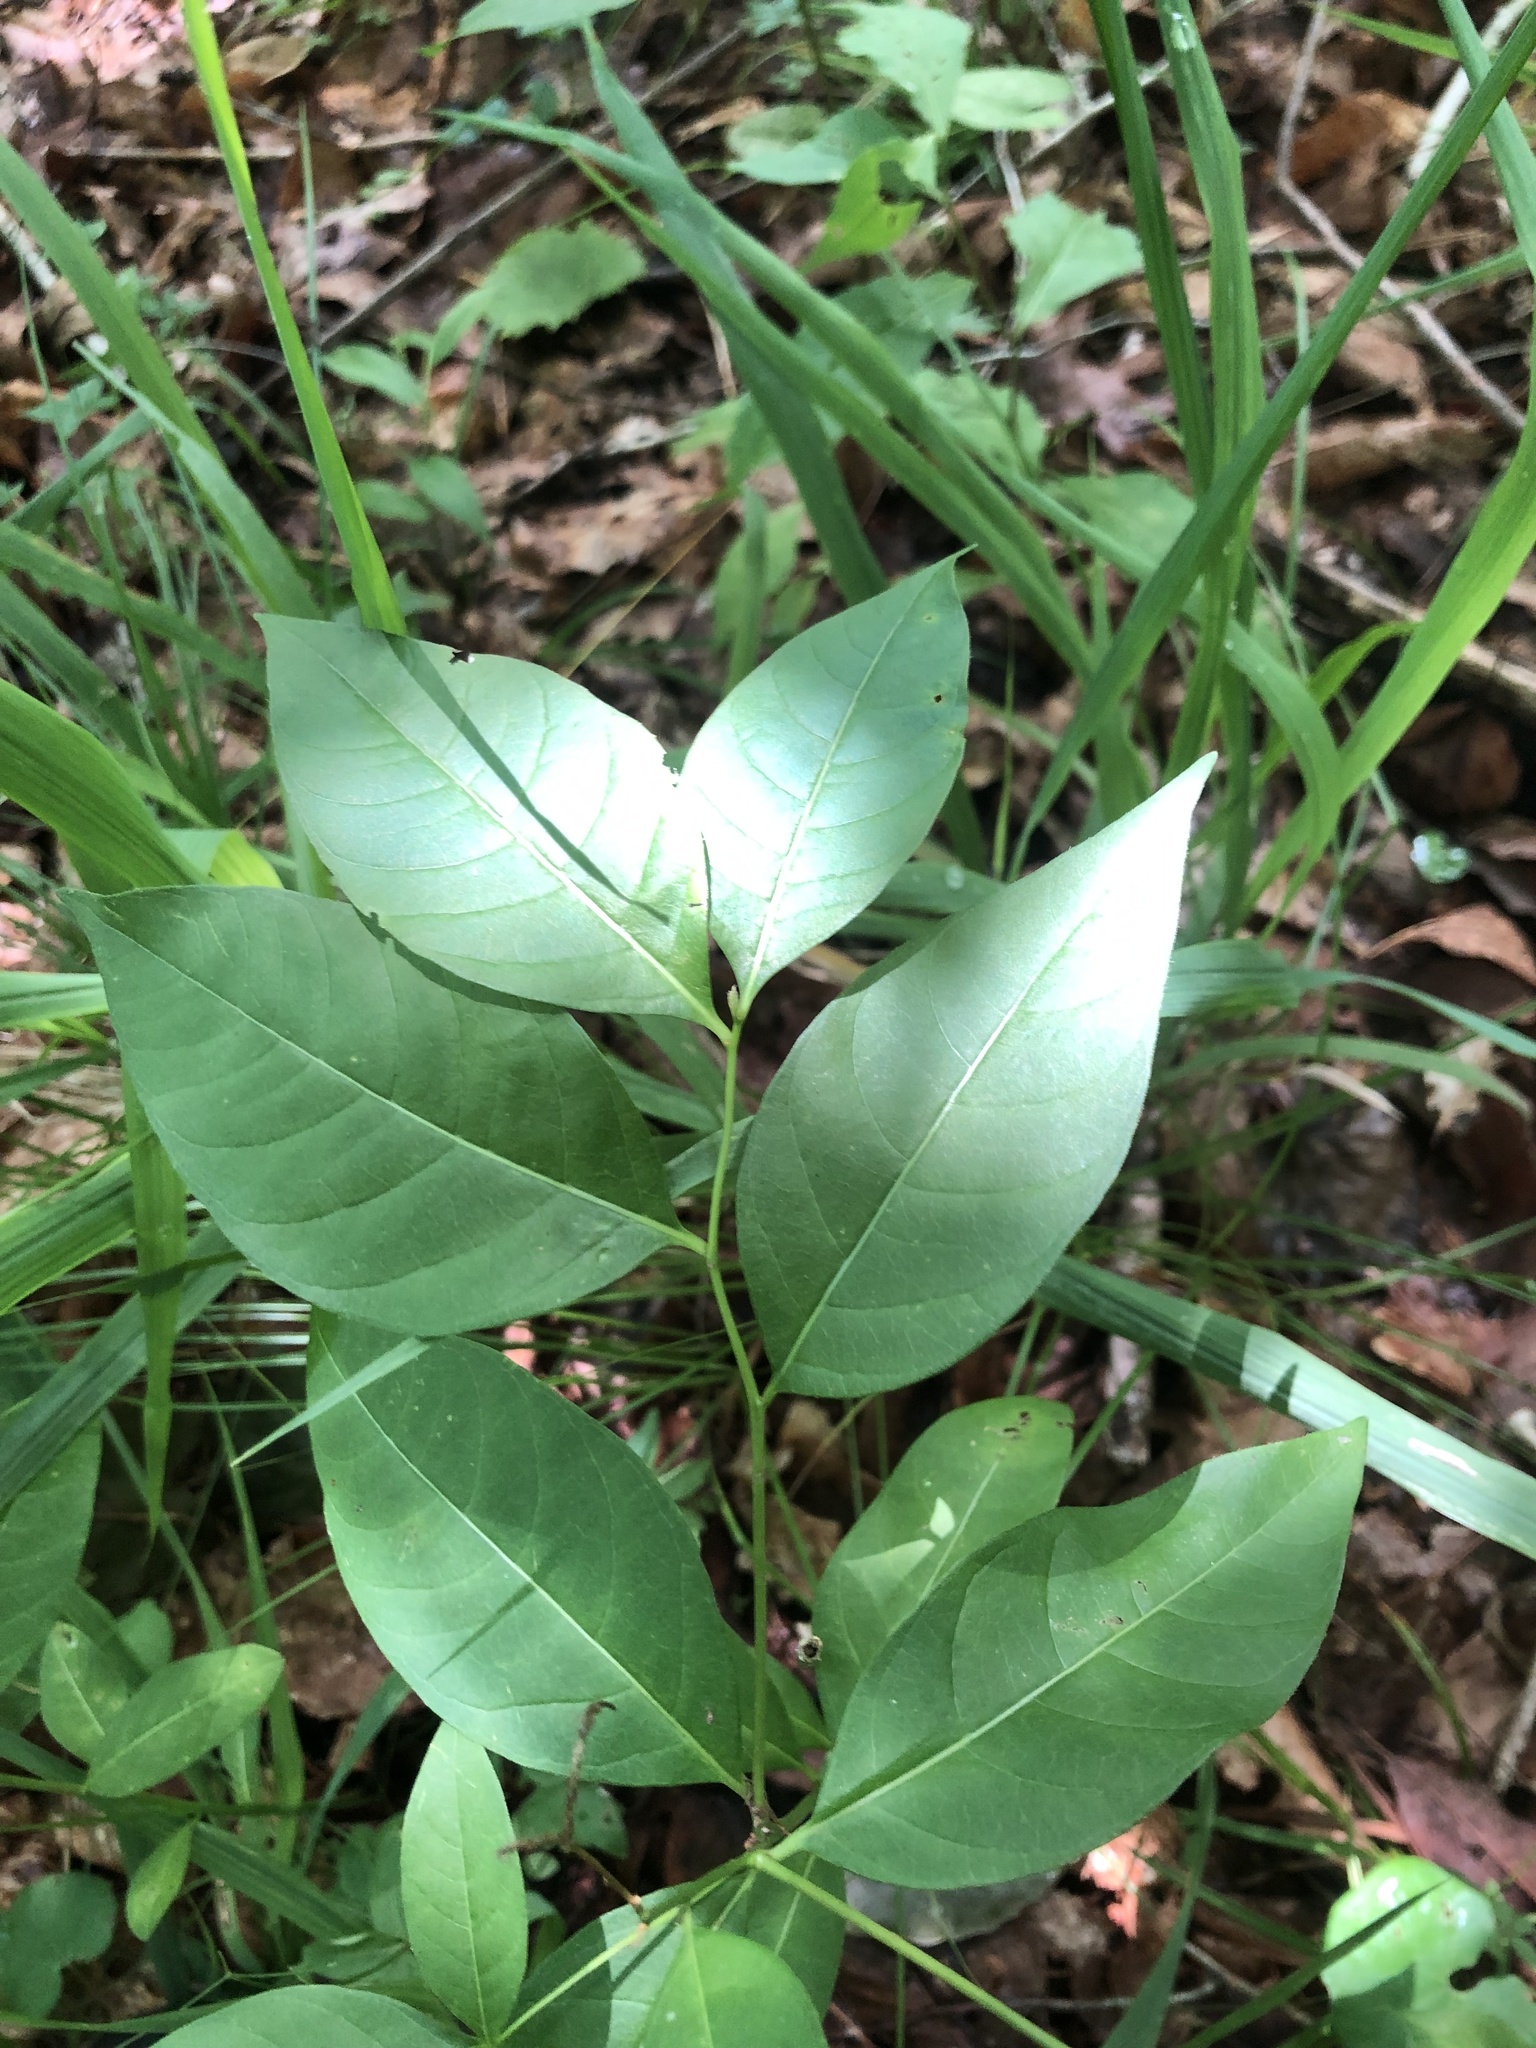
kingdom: Plantae
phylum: Tracheophyta
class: Magnoliopsida
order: Gentianales
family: Apocynaceae
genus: Amsonia
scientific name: Amsonia tabernaemontana
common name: Texas-star
